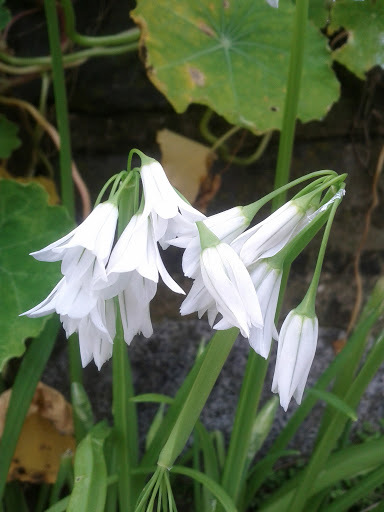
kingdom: Plantae
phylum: Tracheophyta
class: Liliopsida
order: Asparagales
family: Amaryllidaceae
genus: Allium
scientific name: Allium triquetrum
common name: Three-cornered garlic
